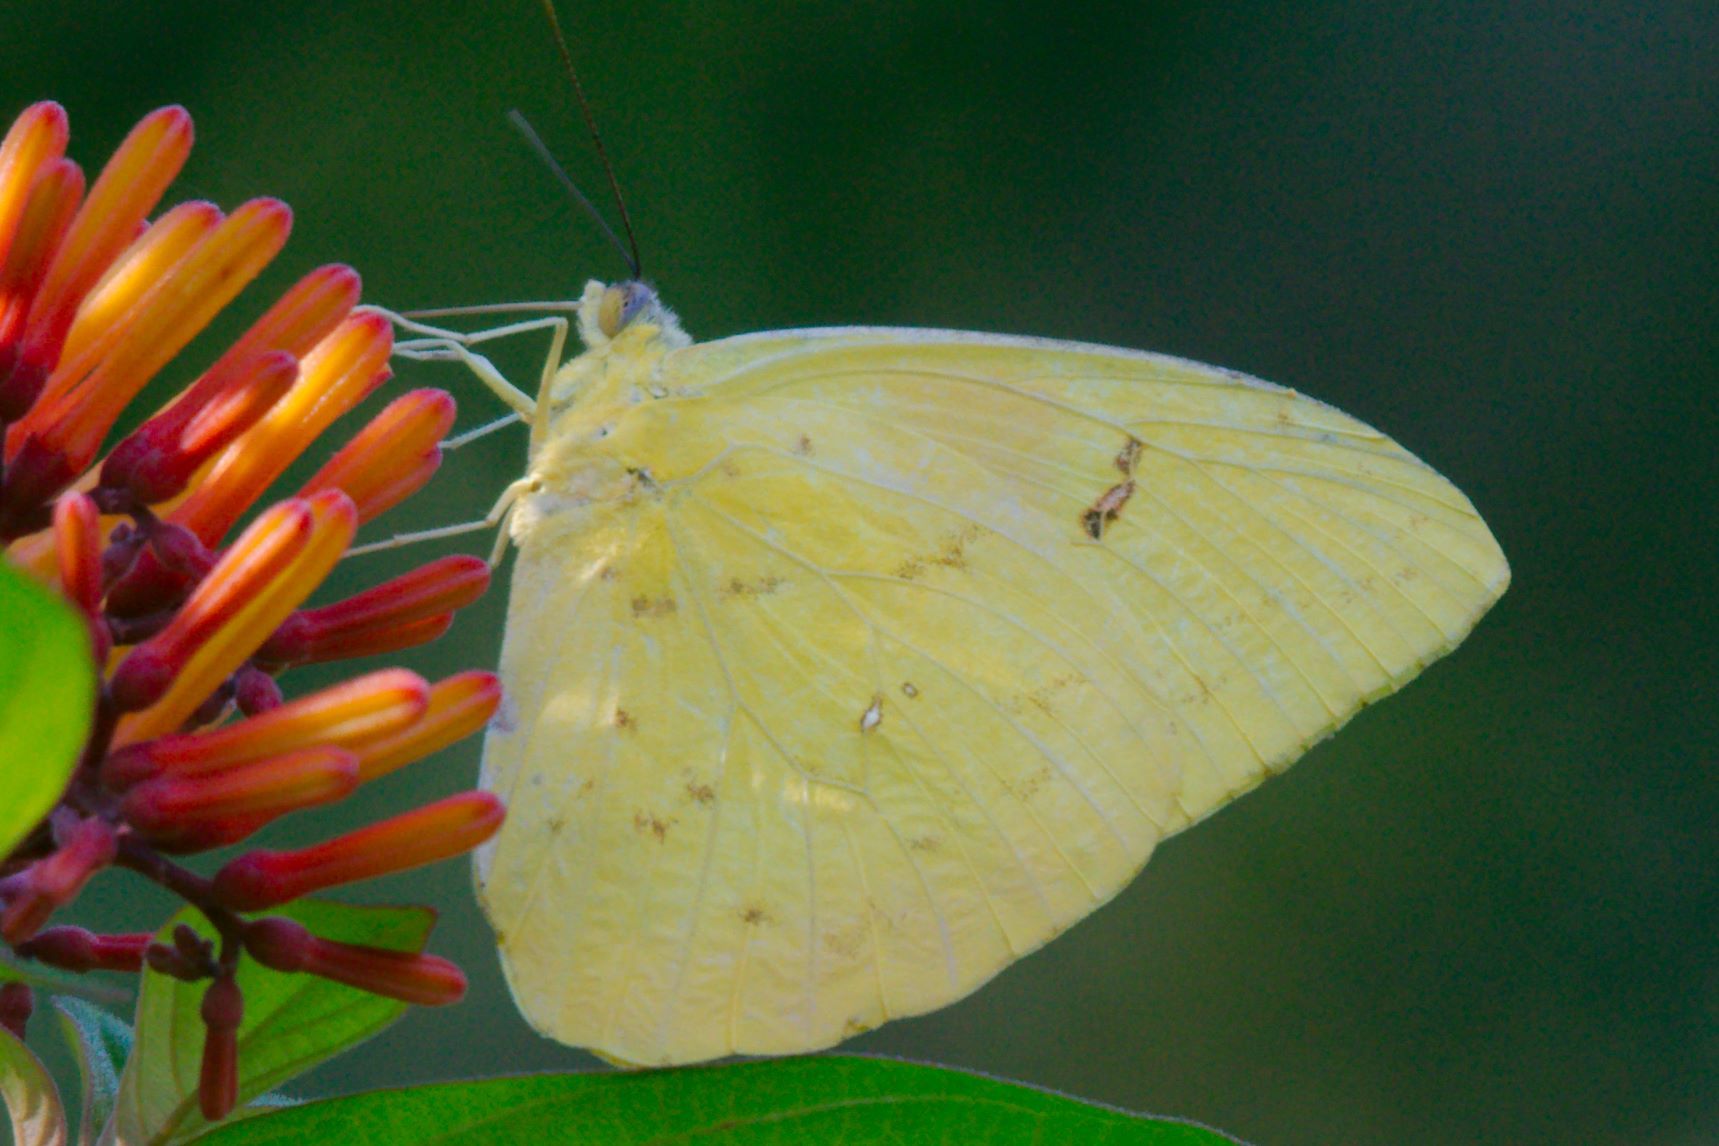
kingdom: Animalia
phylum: Arthropoda
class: Insecta
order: Lepidoptera
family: Pieridae
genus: Phoebis
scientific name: Phoebis philea
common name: Orange-barred giant sulphur
